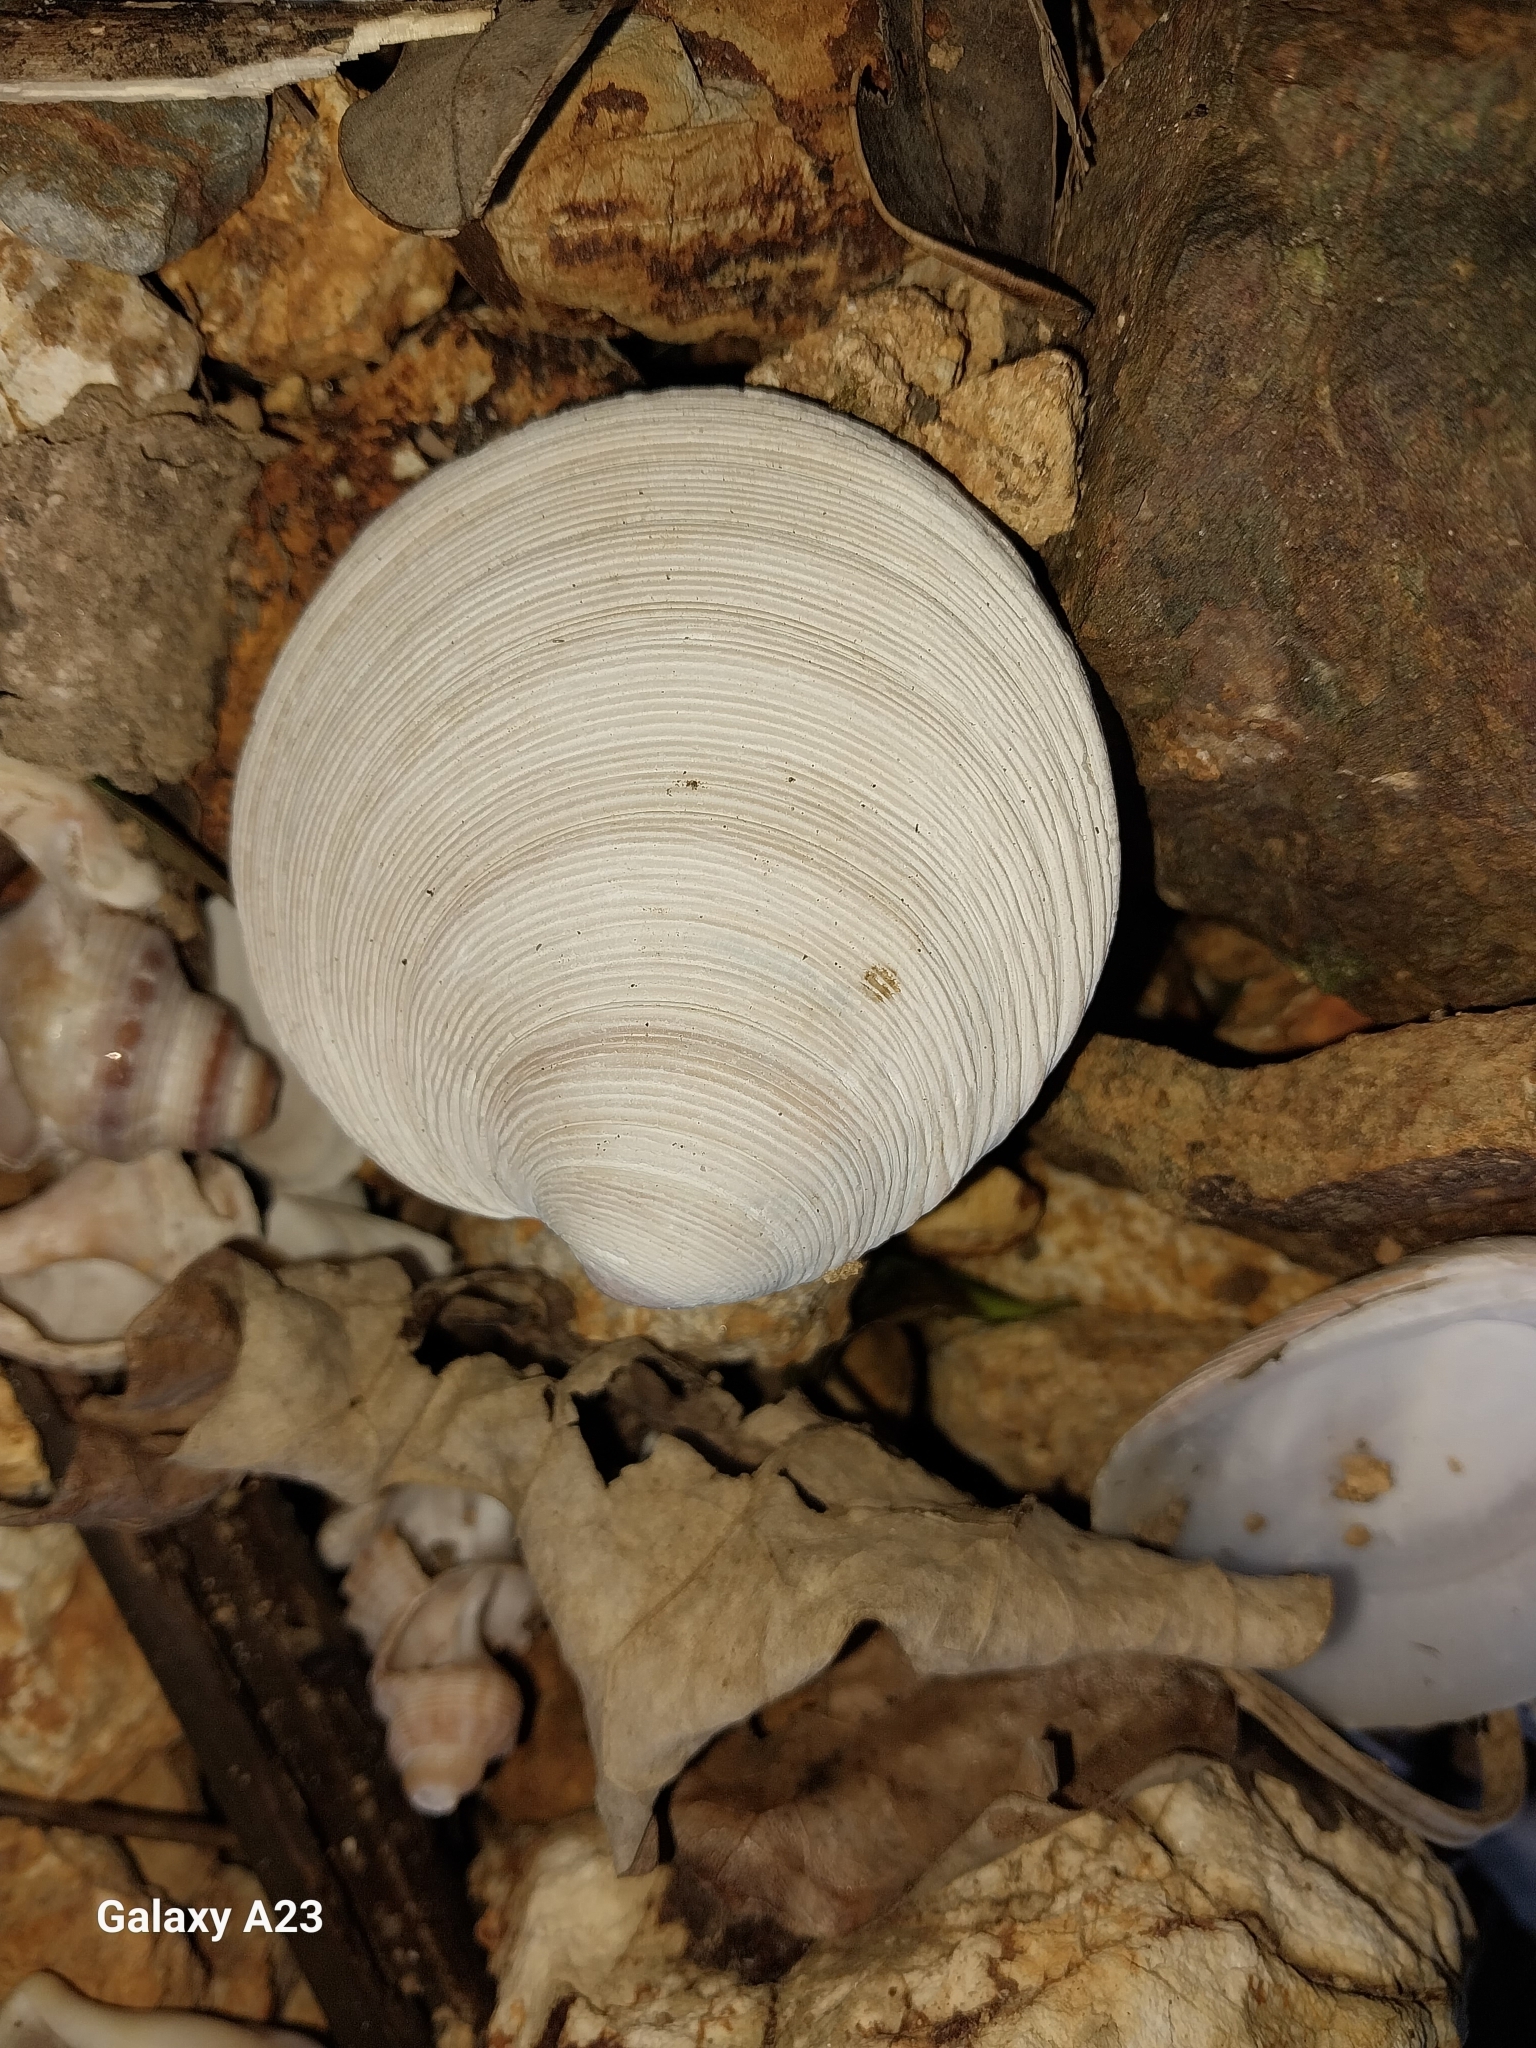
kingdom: Animalia
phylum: Mollusca
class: Bivalvia
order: Venerida
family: Veneridae
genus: Dosinia
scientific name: Dosinia anus
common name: Old-woman dosinia
